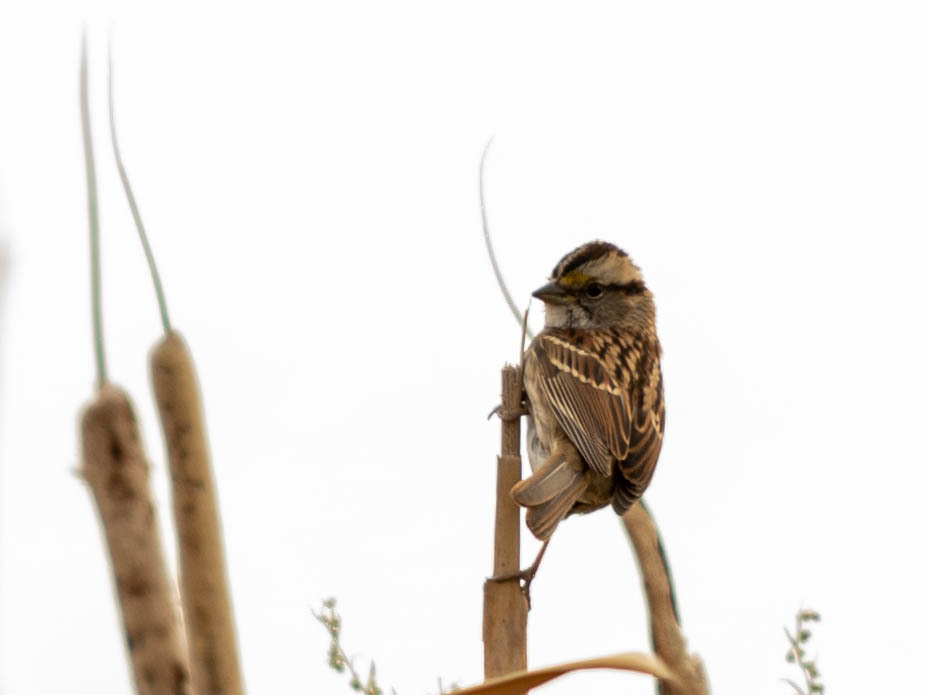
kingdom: Animalia
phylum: Chordata
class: Aves
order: Passeriformes
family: Passerellidae
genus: Zonotrichia
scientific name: Zonotrichia albicollis
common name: White-throated sparrow
